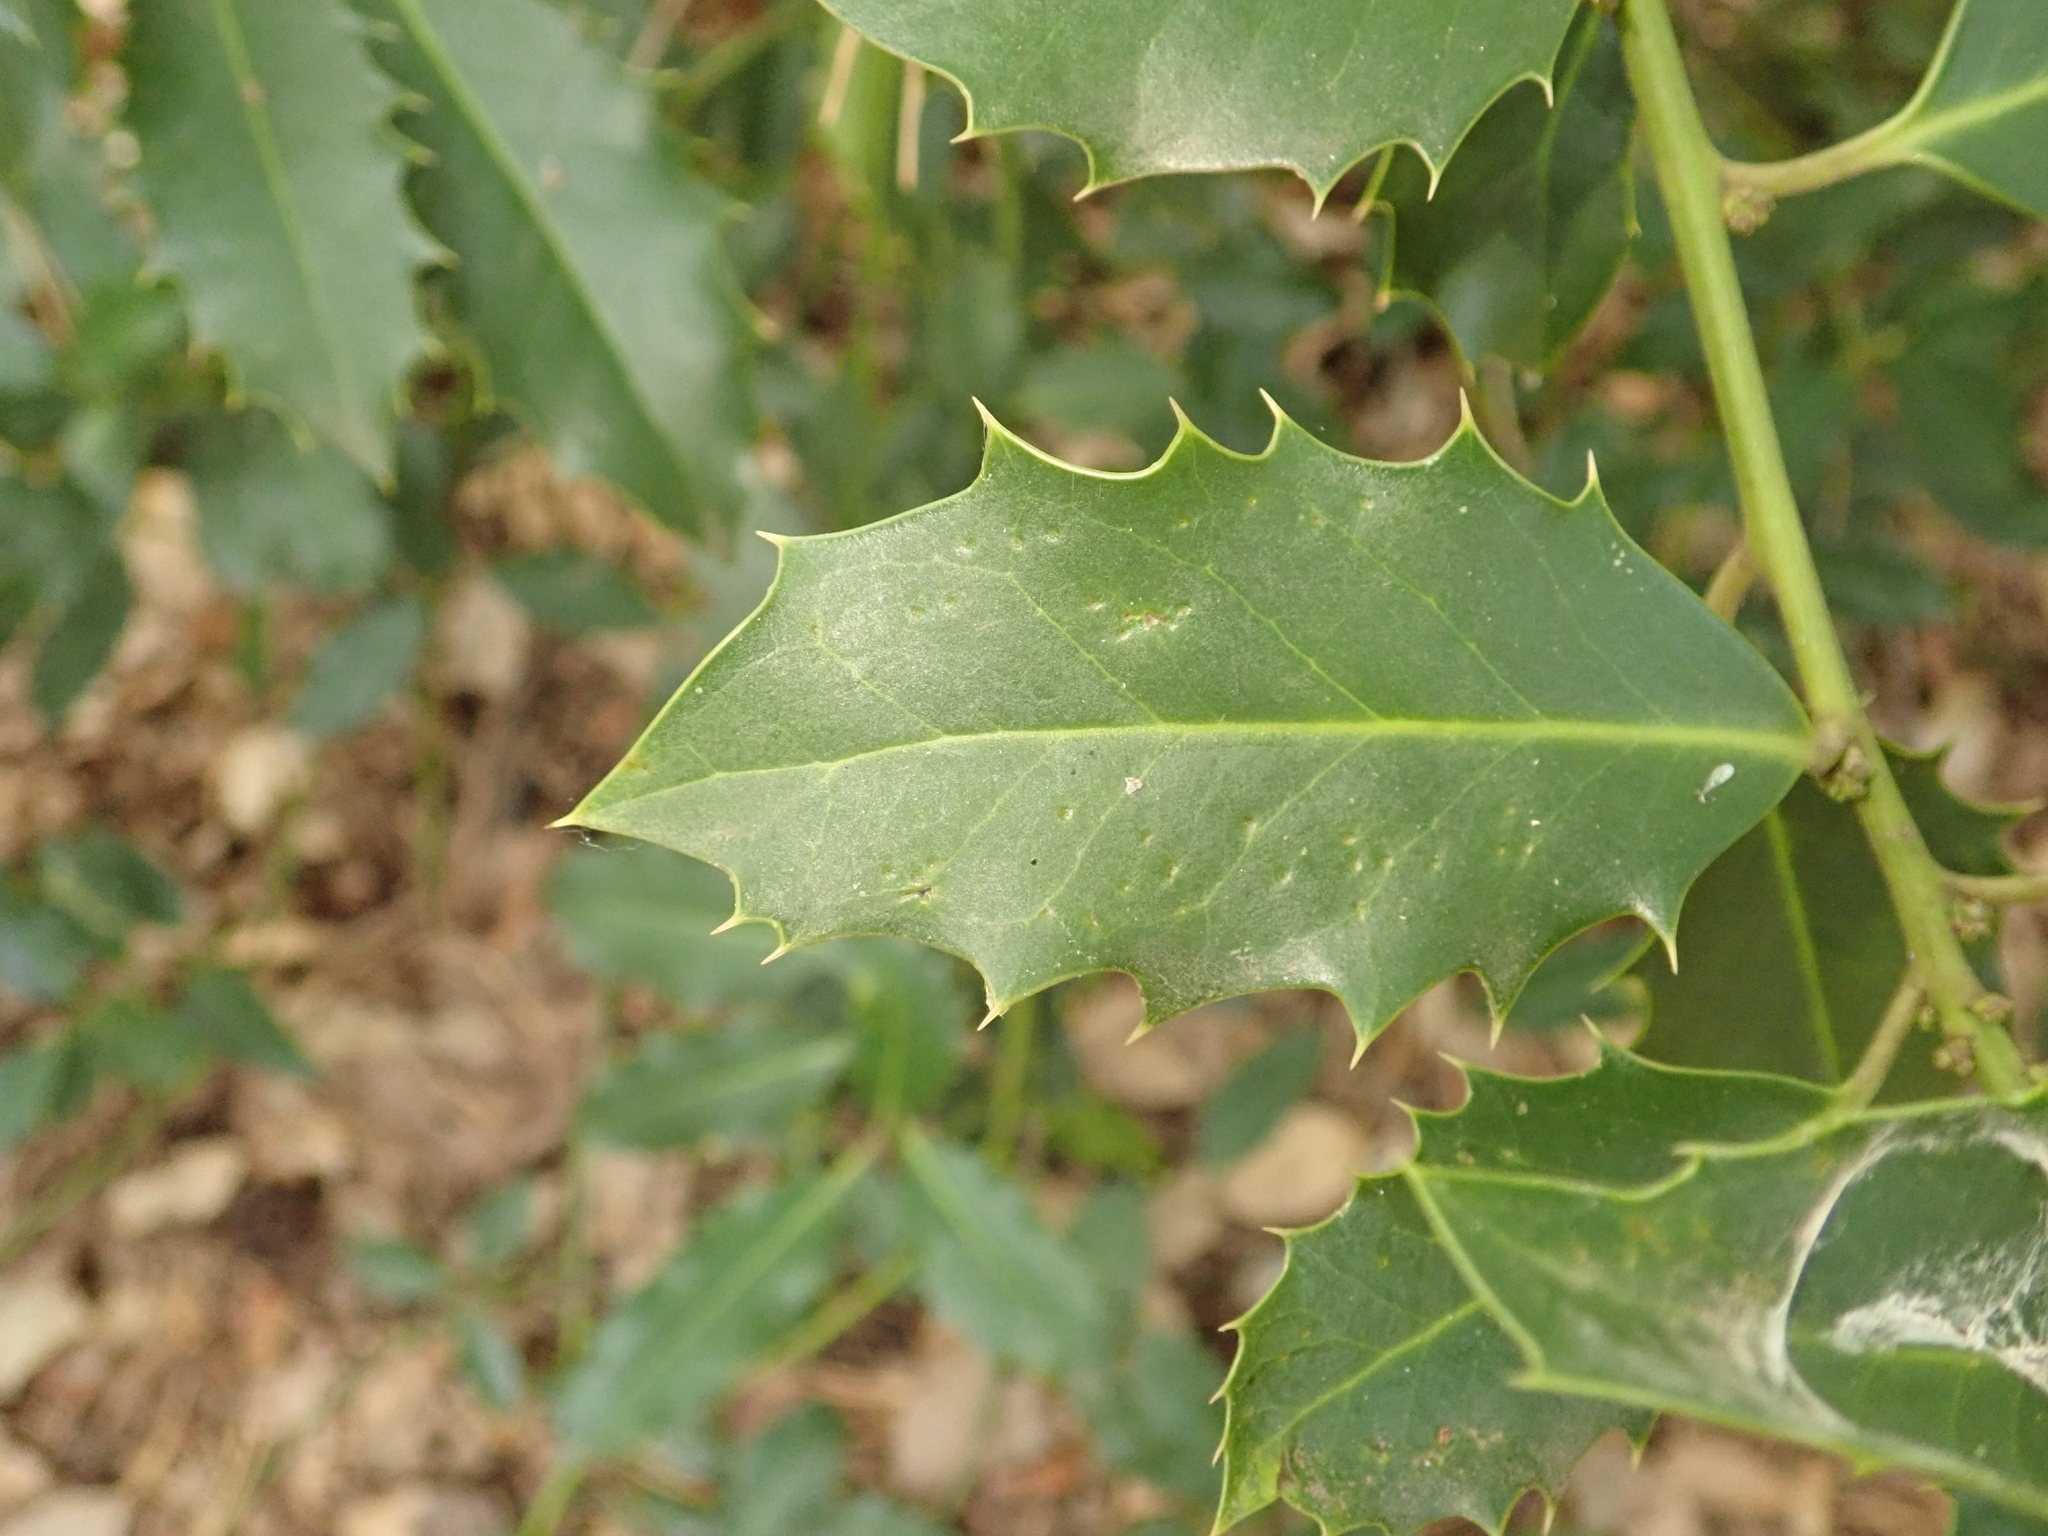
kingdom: Plantae
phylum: Tracheophyta
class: Magnoliopsida
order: Aquifoliales
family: Aquifoliaceae
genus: Ilex
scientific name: Ilex aquifolium
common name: English holly
